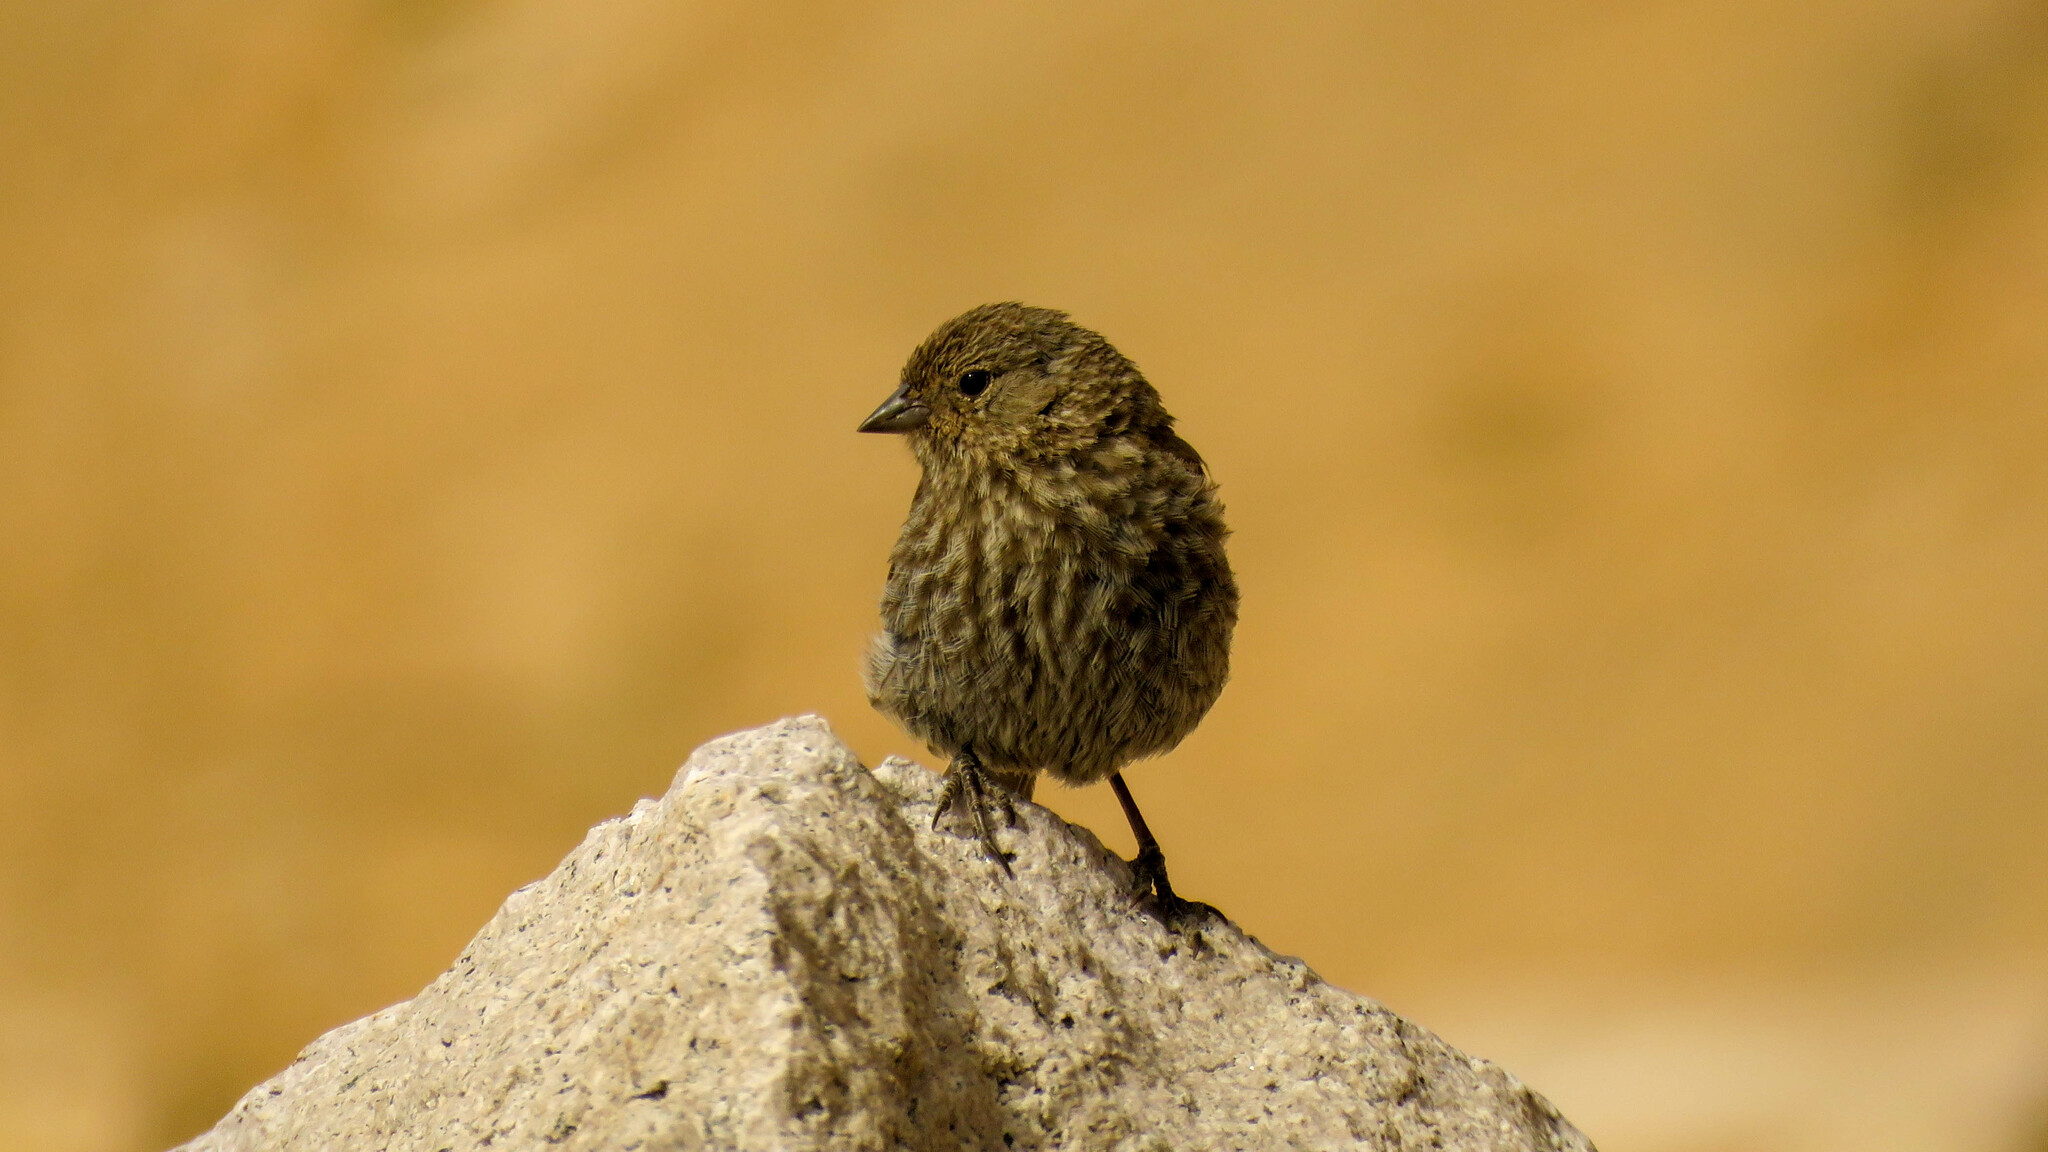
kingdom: Animalia
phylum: Chordata
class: Aves
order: Passeriformes
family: Thraupidae
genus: Geospizopsis
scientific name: Geospizopsis unicolor
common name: Plumbeous sierra-finch
